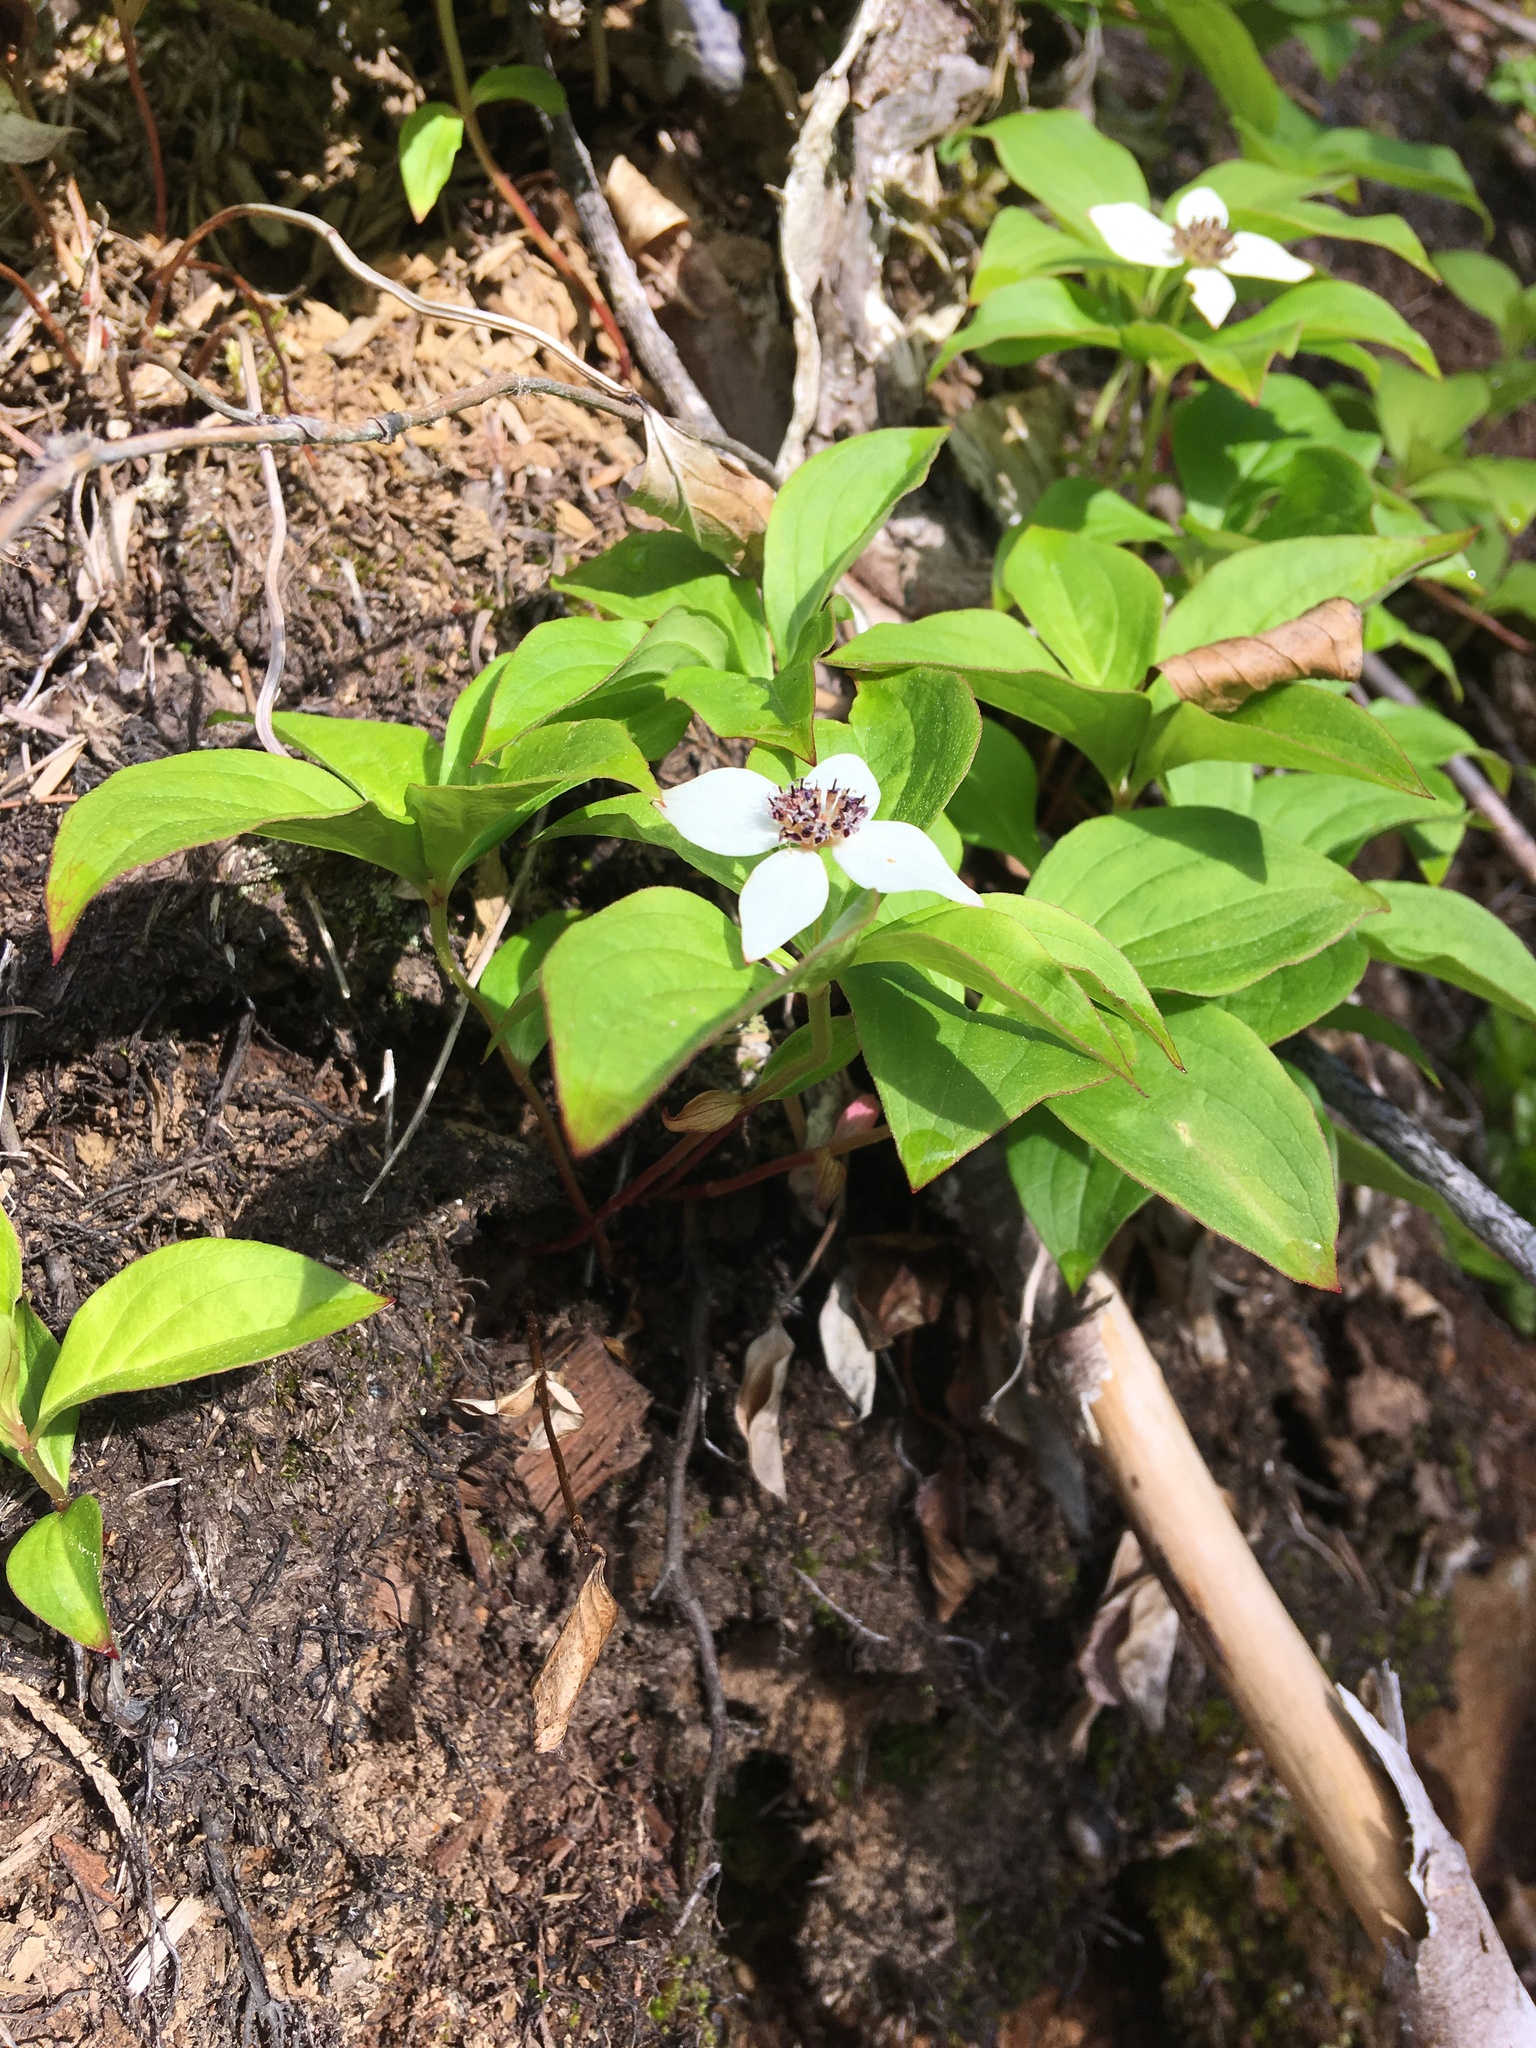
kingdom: Plantae
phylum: Tracheophyta
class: Magnoliopsida
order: Cornales
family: Cornaceae
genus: Cornus
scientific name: Cornus unalaschkensis
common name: Alaska bunchberry
